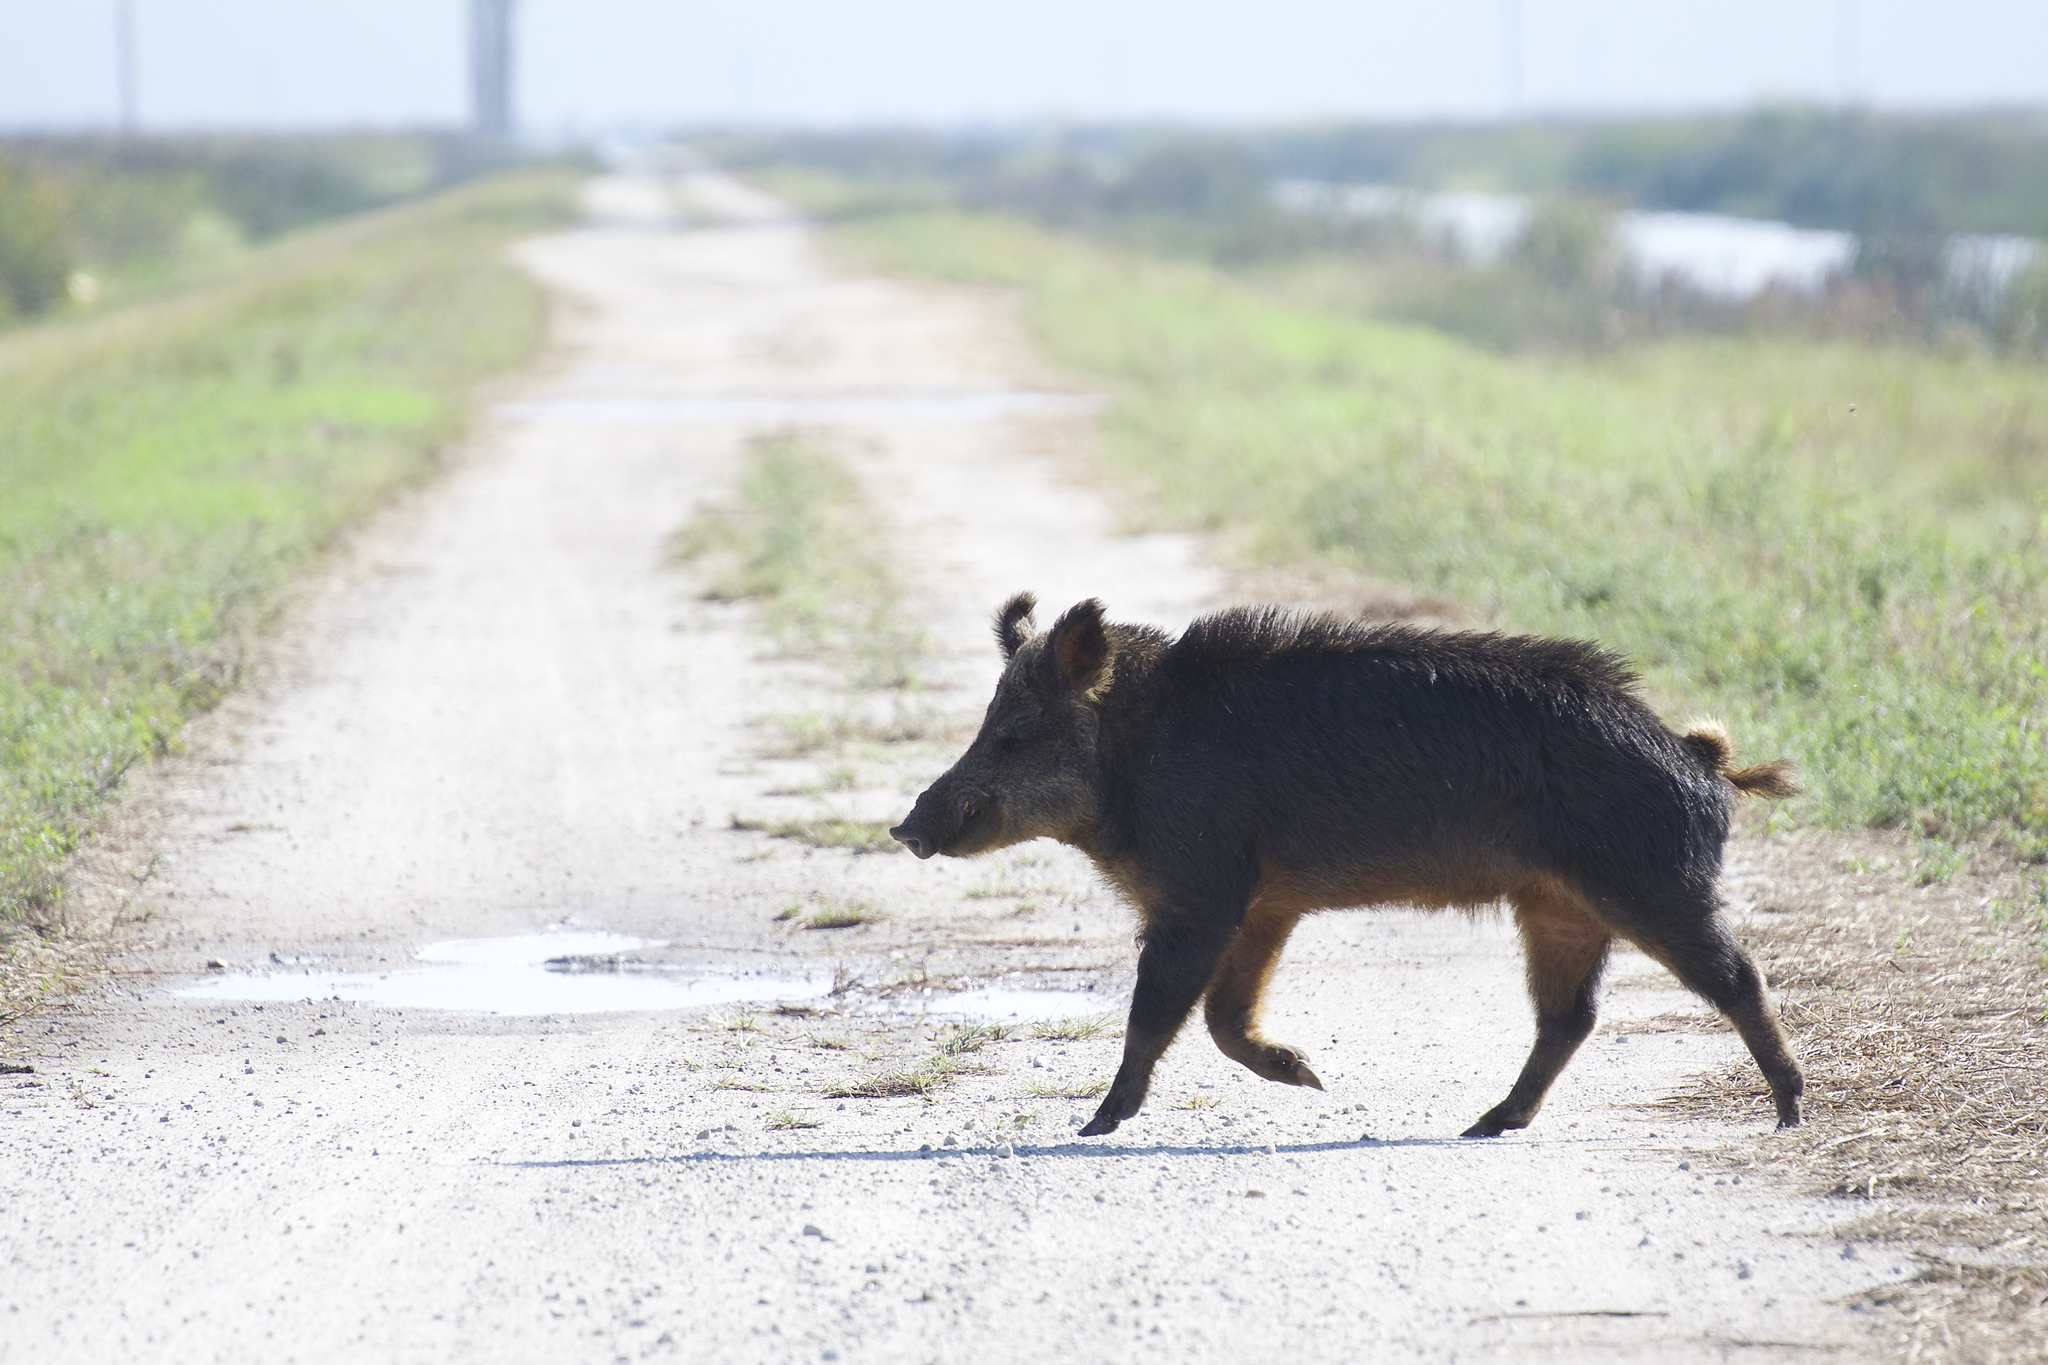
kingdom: Animalia
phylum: Chordata
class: Mammalia
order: Artiodactyla
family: Suidae
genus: Sus
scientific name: Sus scrofa
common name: Wild boar
